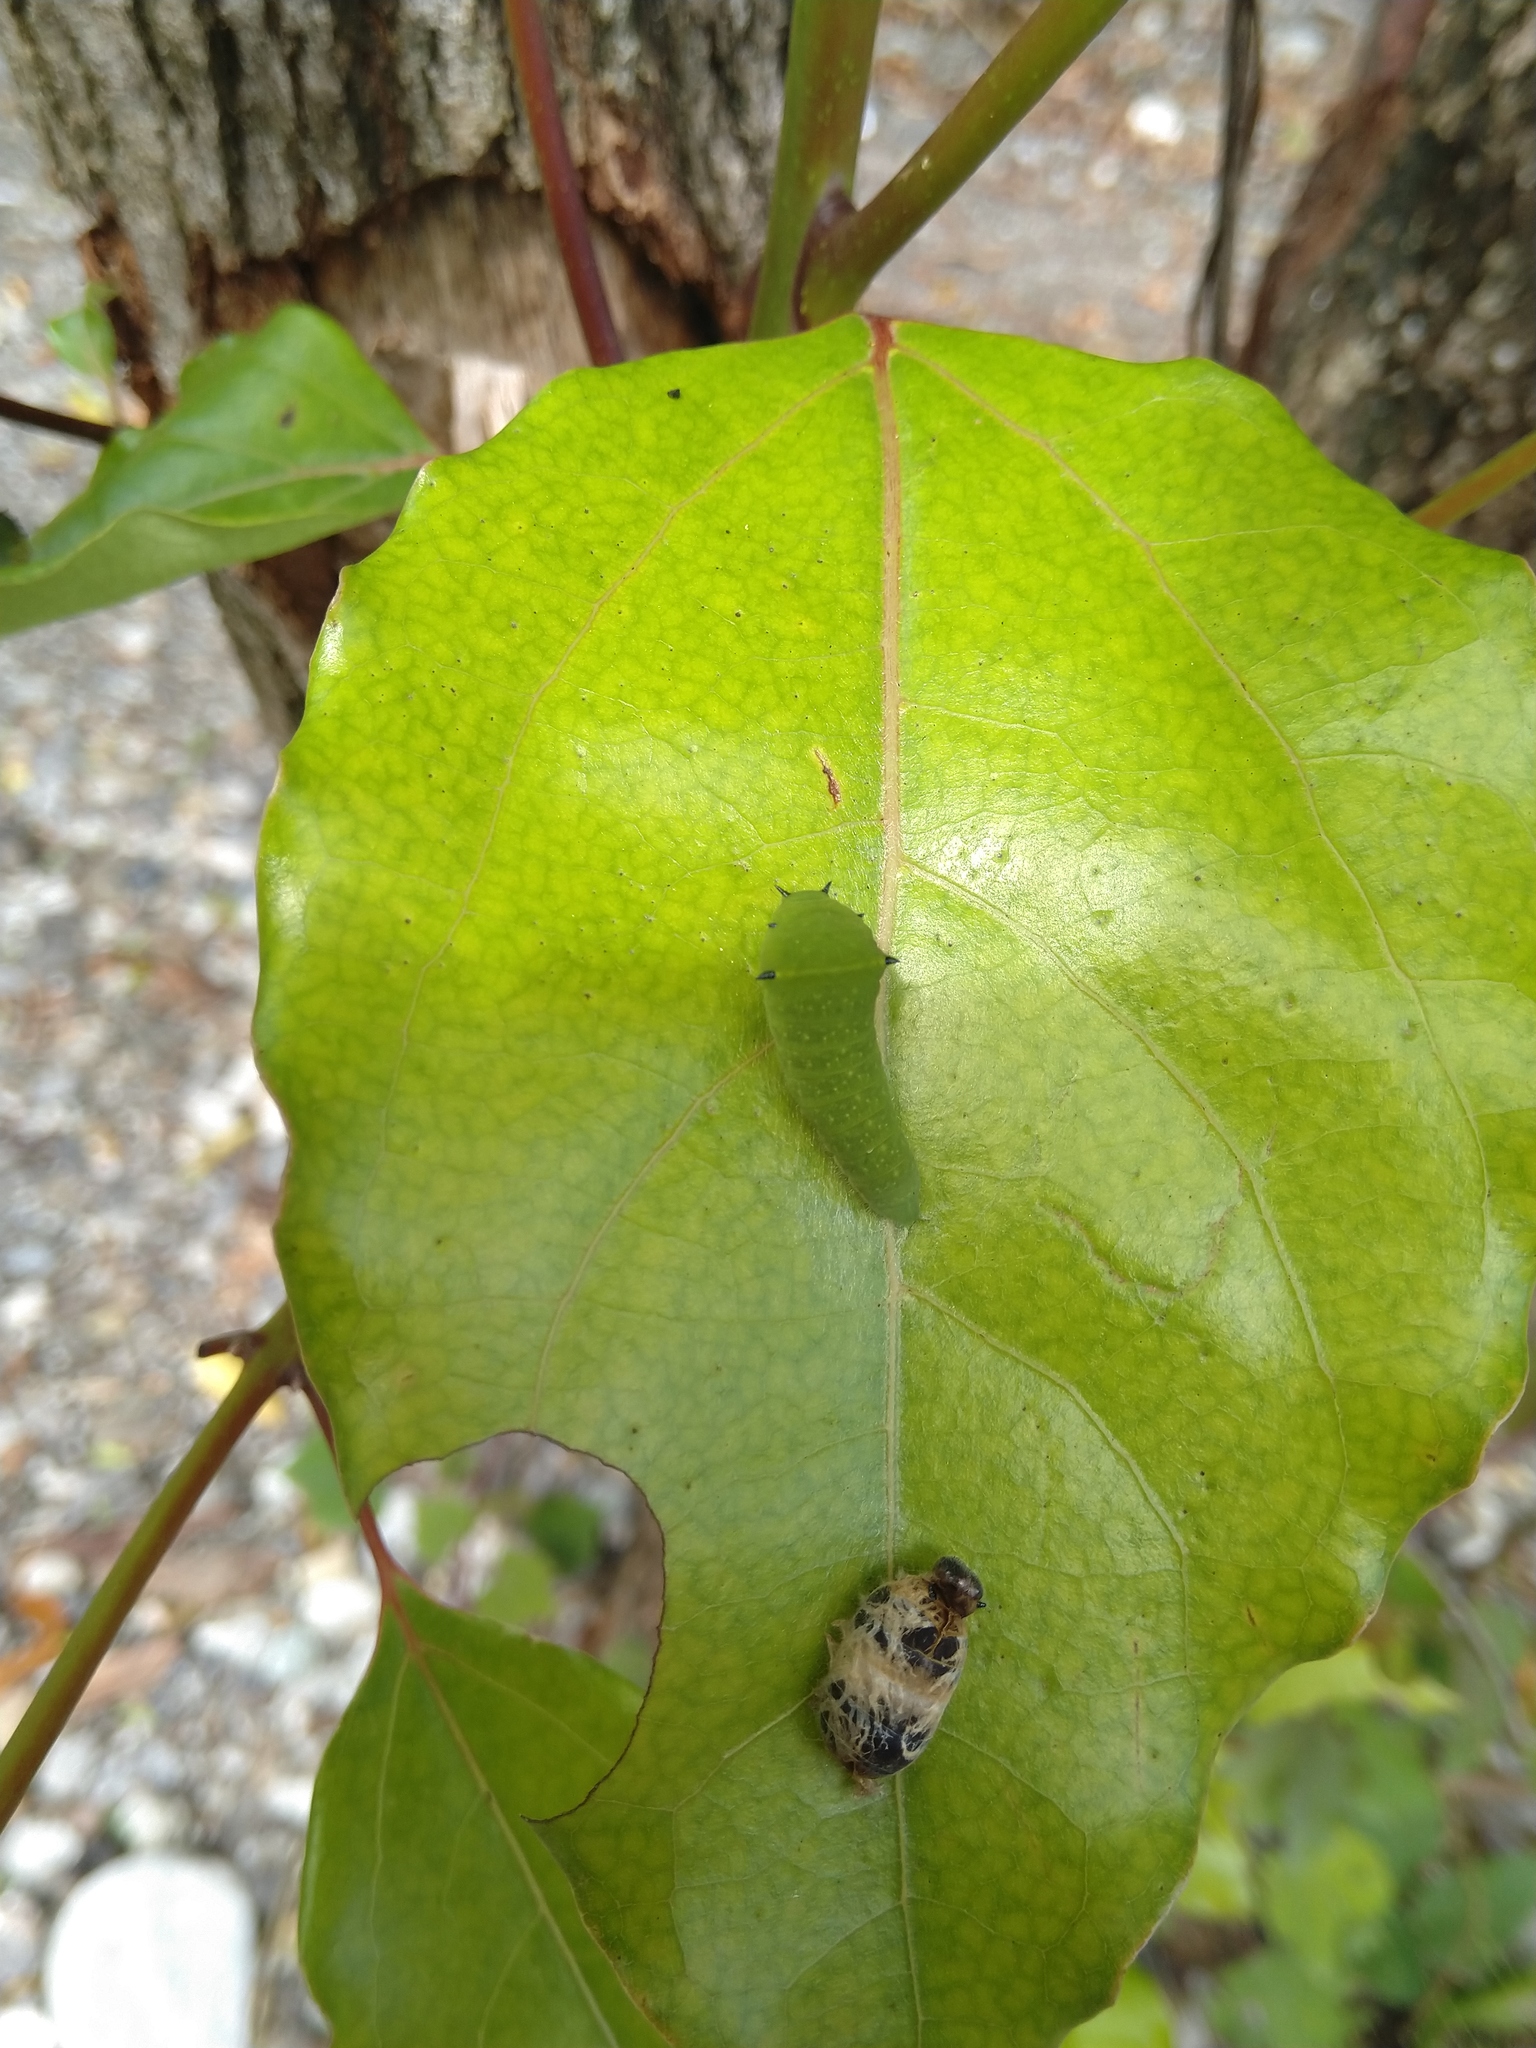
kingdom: Fungi
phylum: Ascomycota
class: Sordariomycetes
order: Microascales
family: Microascaceae
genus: Graphium
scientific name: Graphium sarpedon
